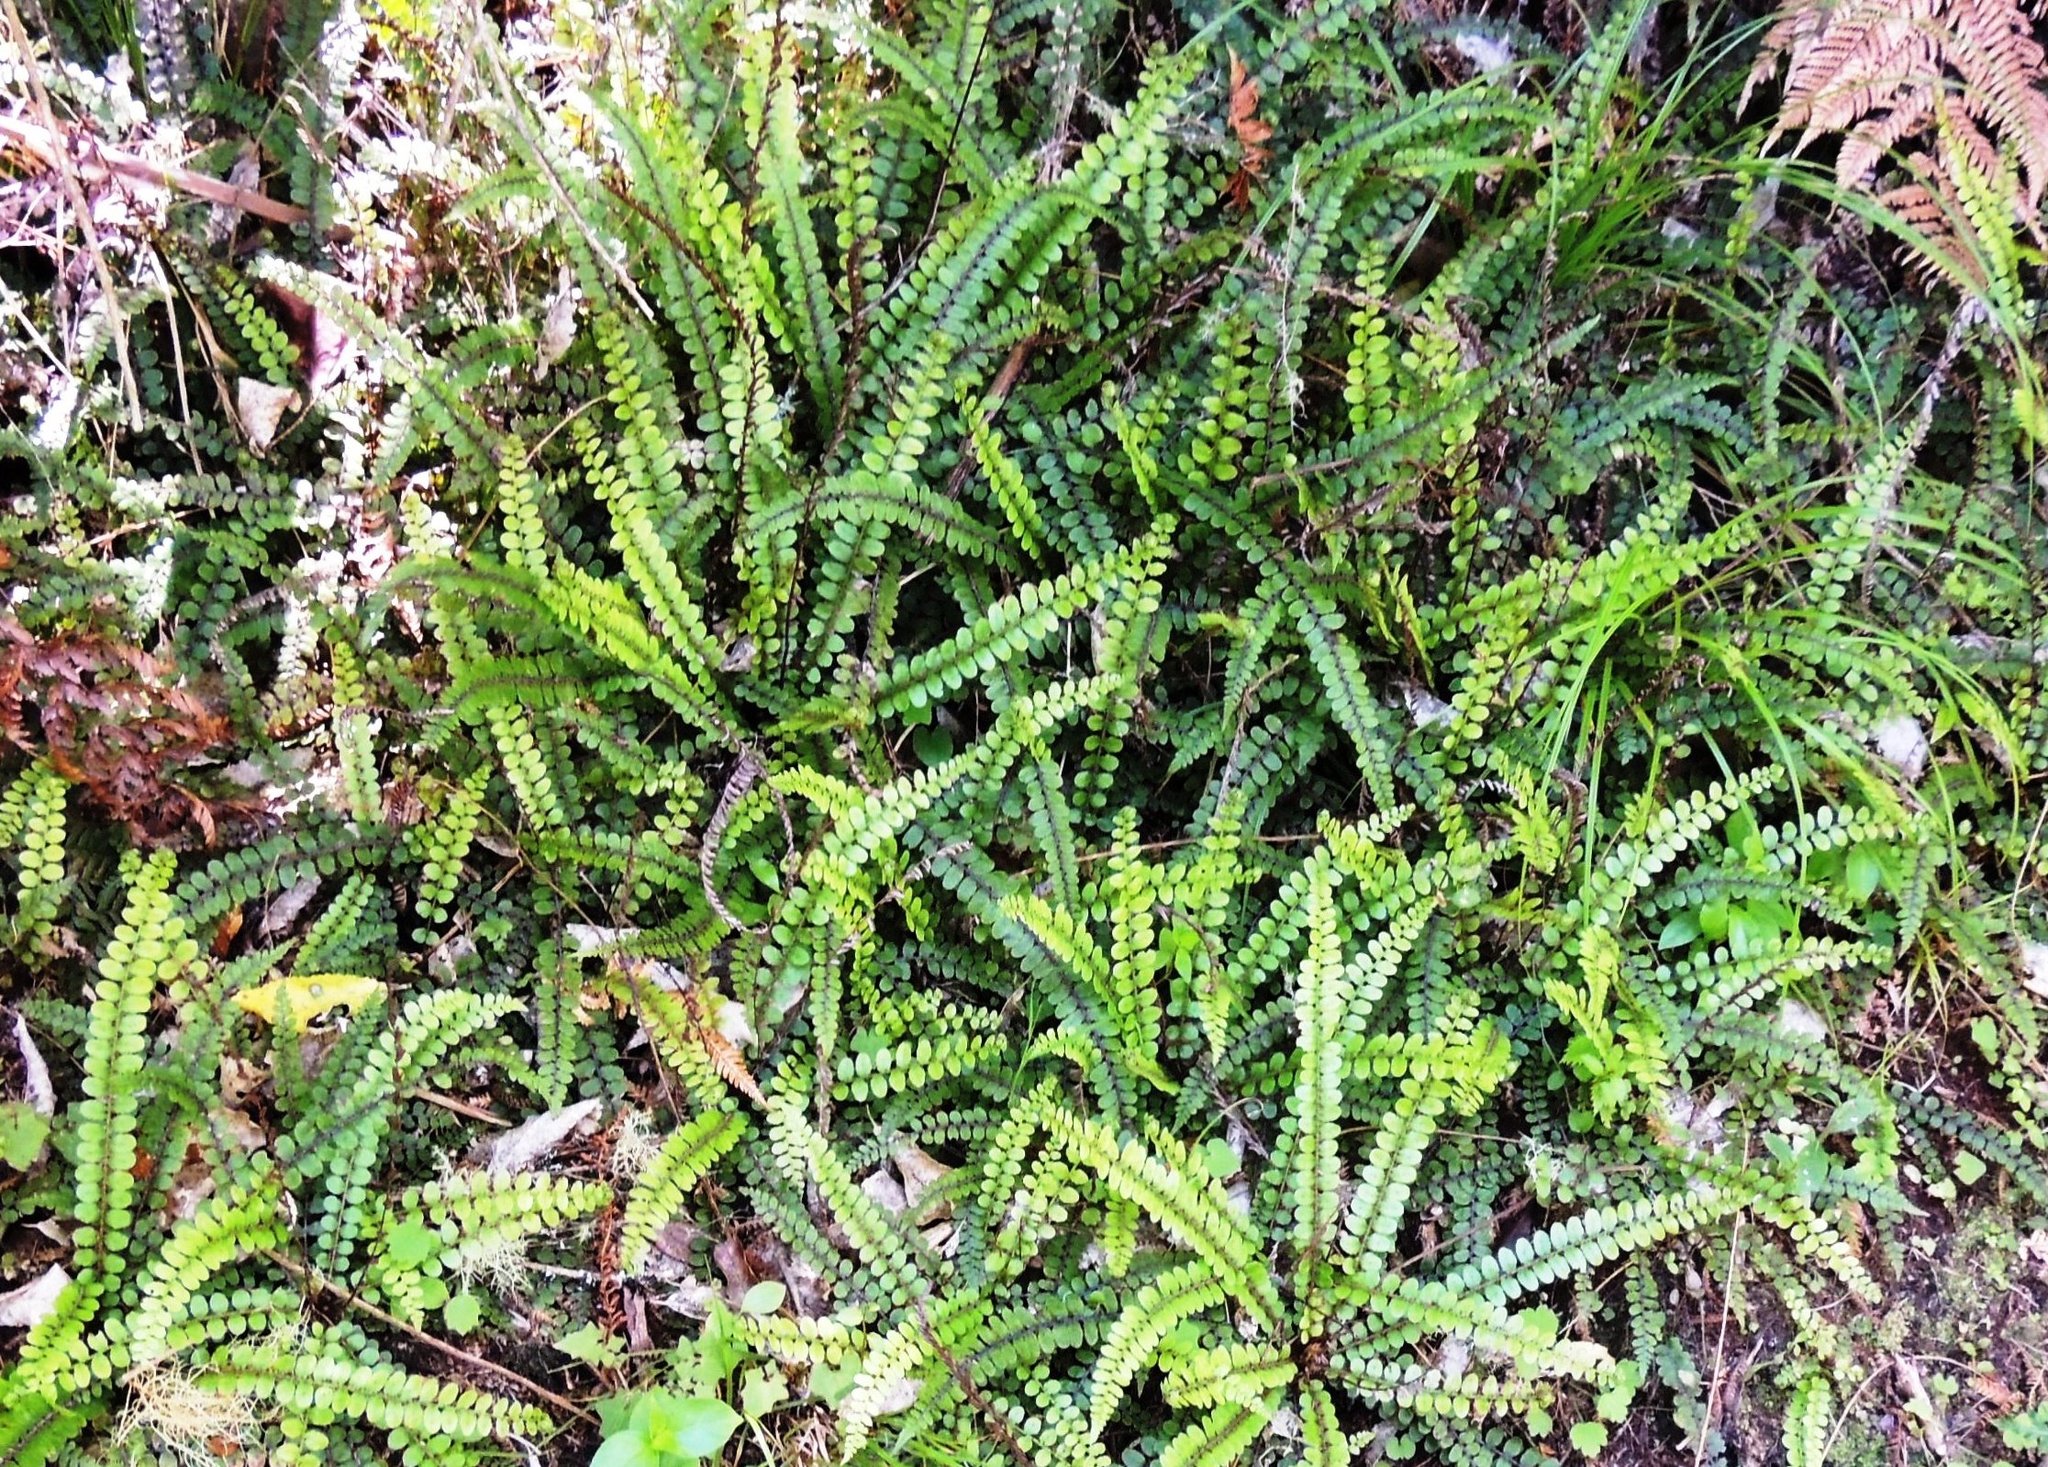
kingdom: Plantae
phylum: Tracheophyta
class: Polypodiopsida
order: Polypodiales
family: Blechnaceae
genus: Cranfillia
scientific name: Cranfillia fluviatilis
